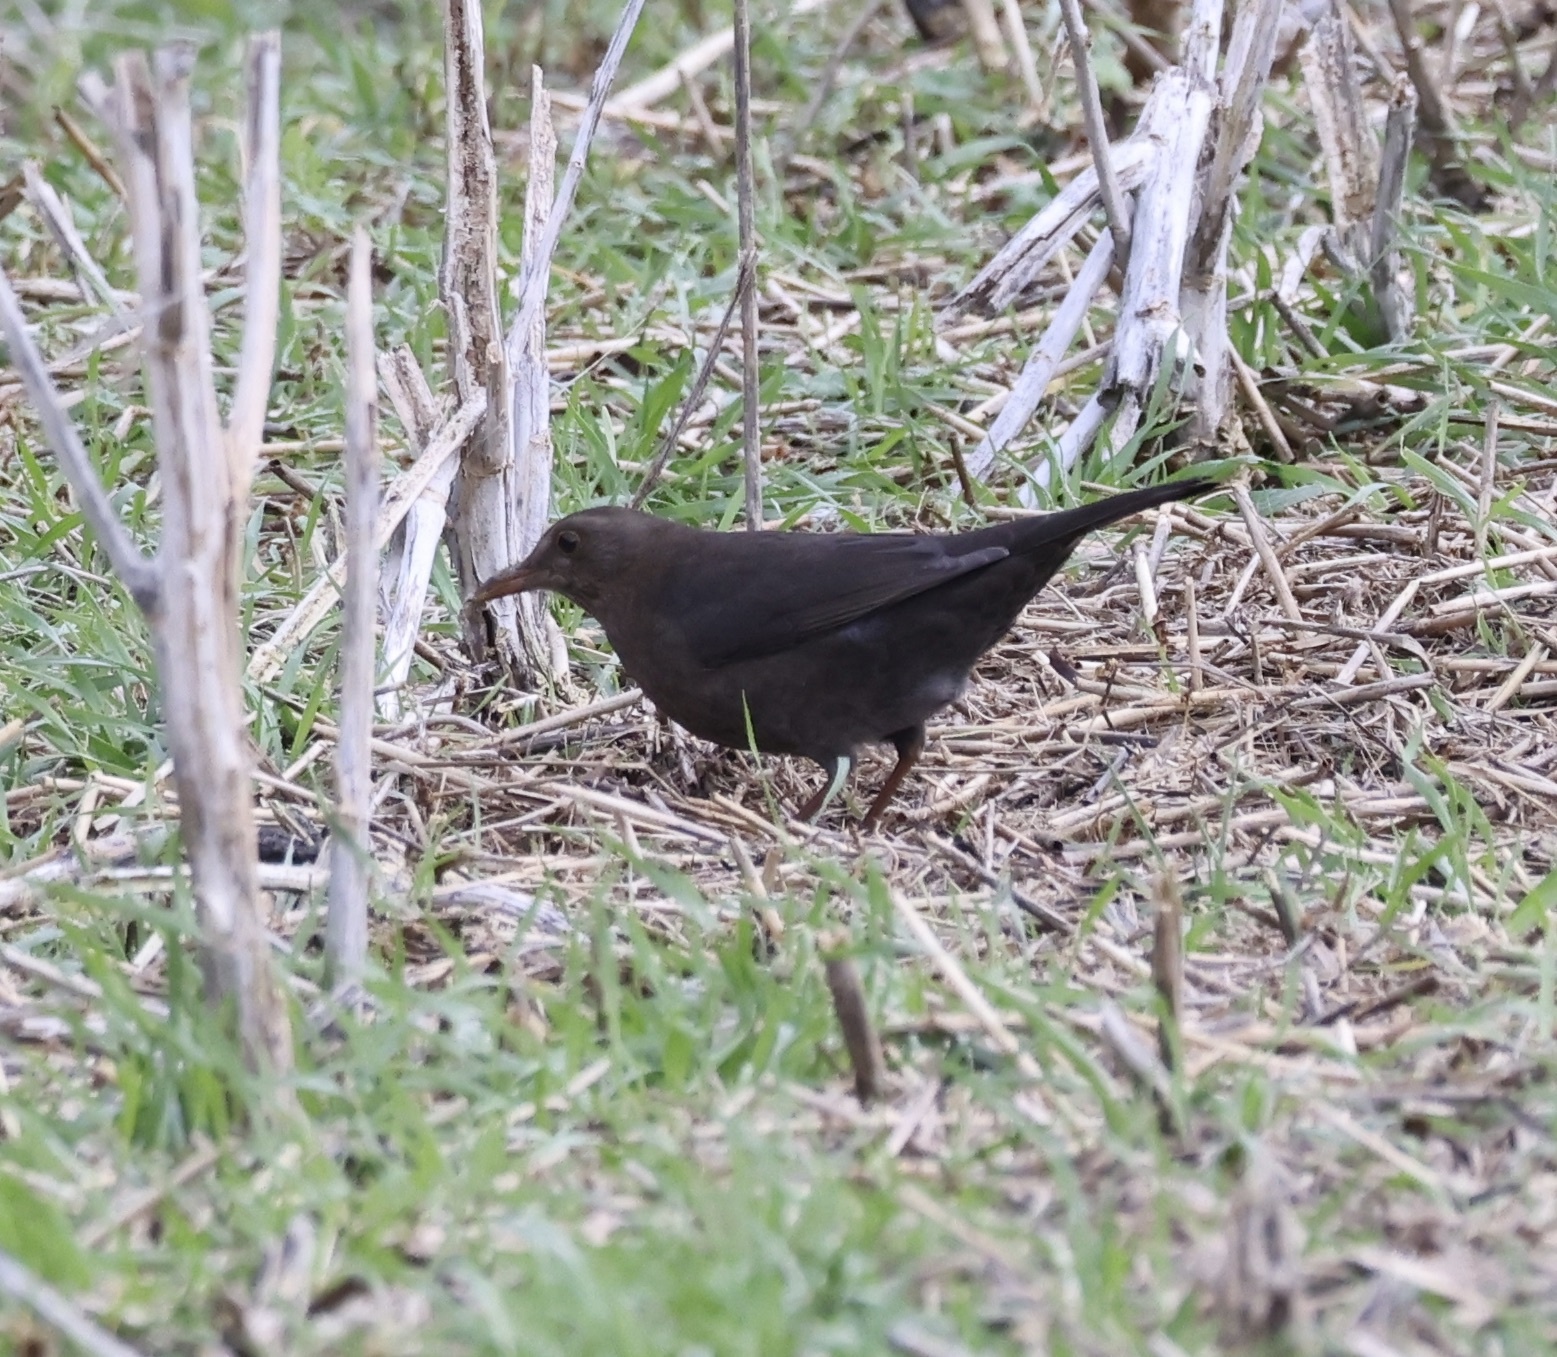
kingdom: Animalia
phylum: Chordata
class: Aves
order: Passeriformes
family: Turdidae
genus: Turdus
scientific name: Turdus merula
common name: Common blackbird
